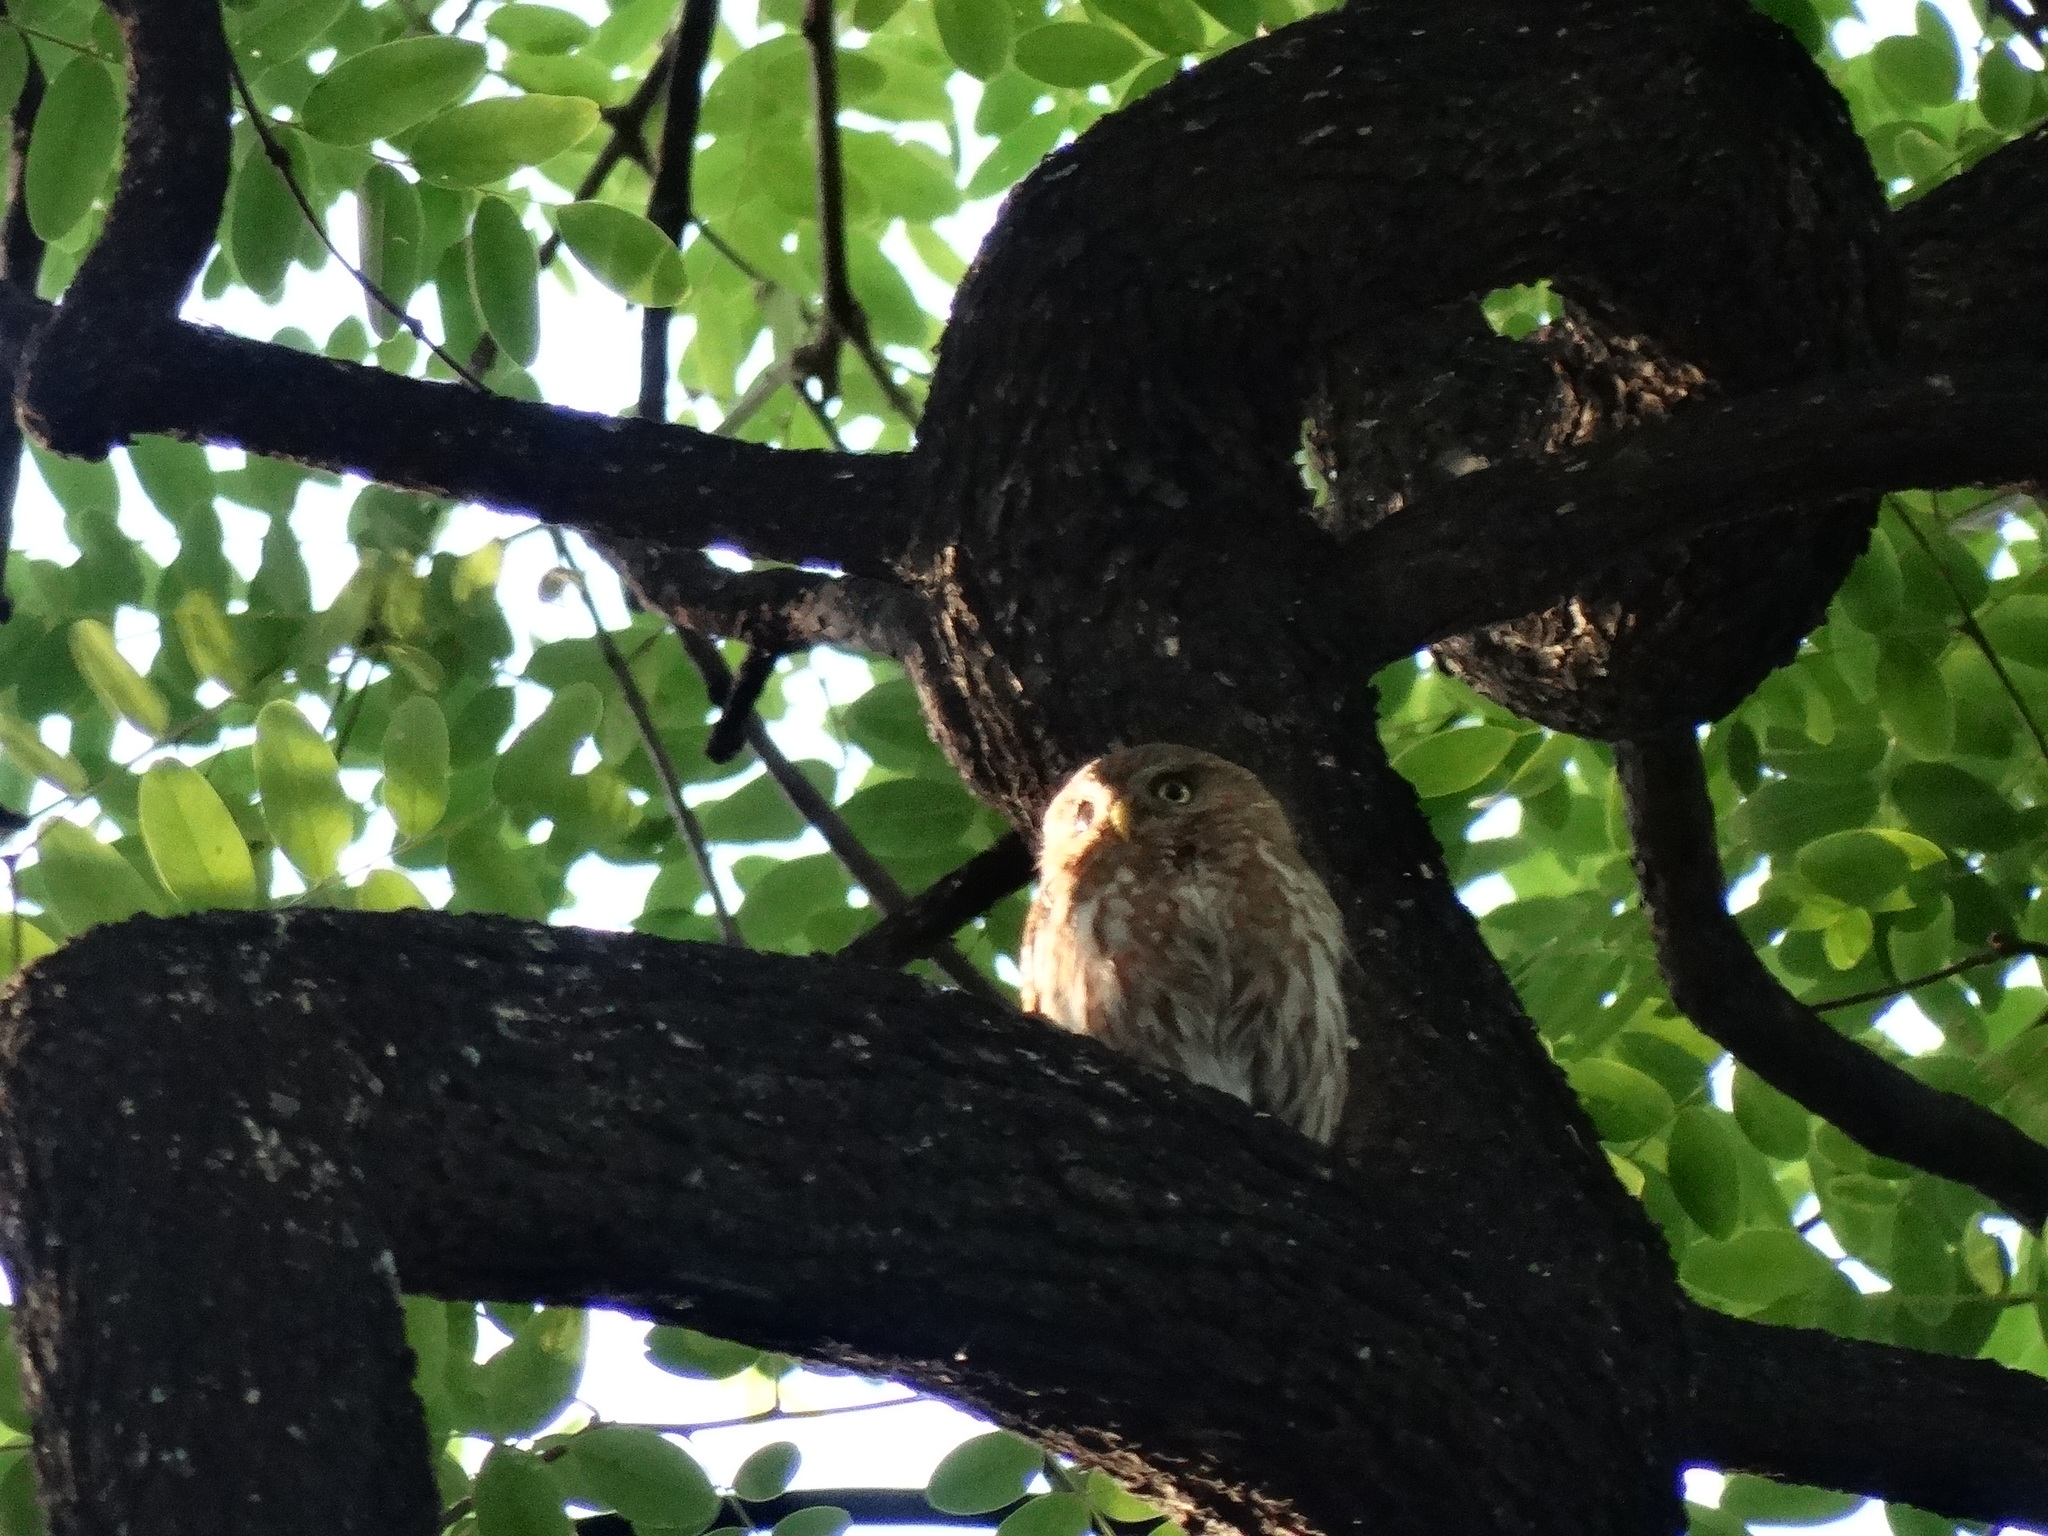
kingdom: Animalia
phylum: Chordata
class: Aves
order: Strigiformes
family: Strigidae
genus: Glaucidium
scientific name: Glaucidium brasilianum
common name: Ferruginous pygmy-owl
